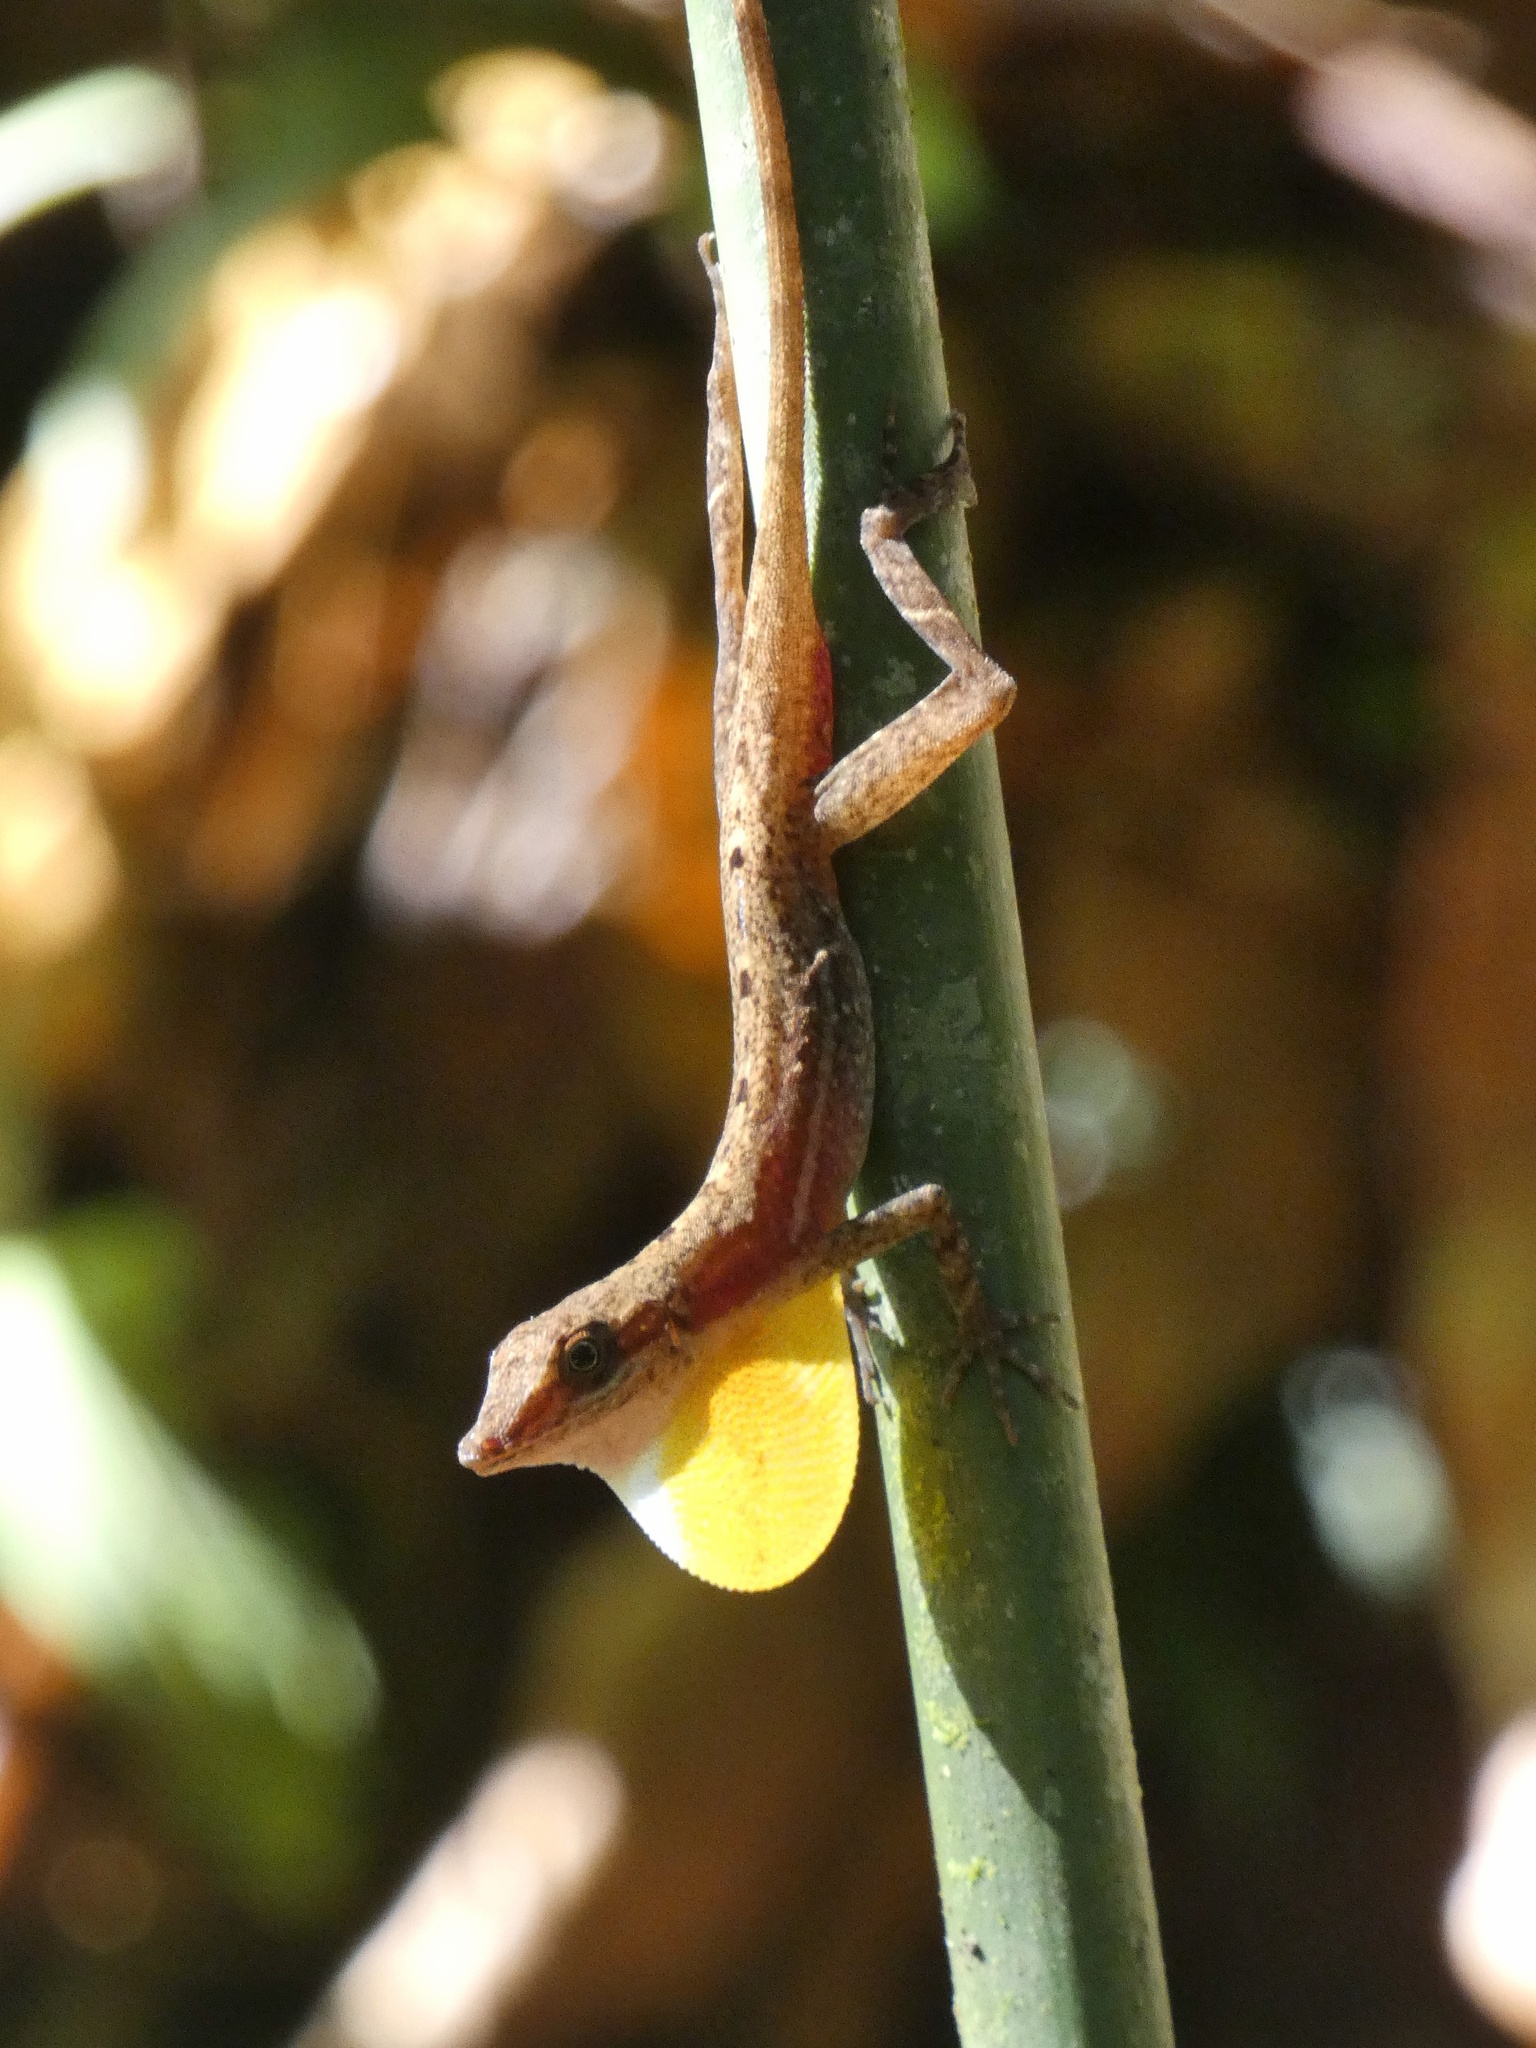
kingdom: Animalia
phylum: Chordata
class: Squamata
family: Dactyloidae
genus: Anolis
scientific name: Anolis apletophallus
